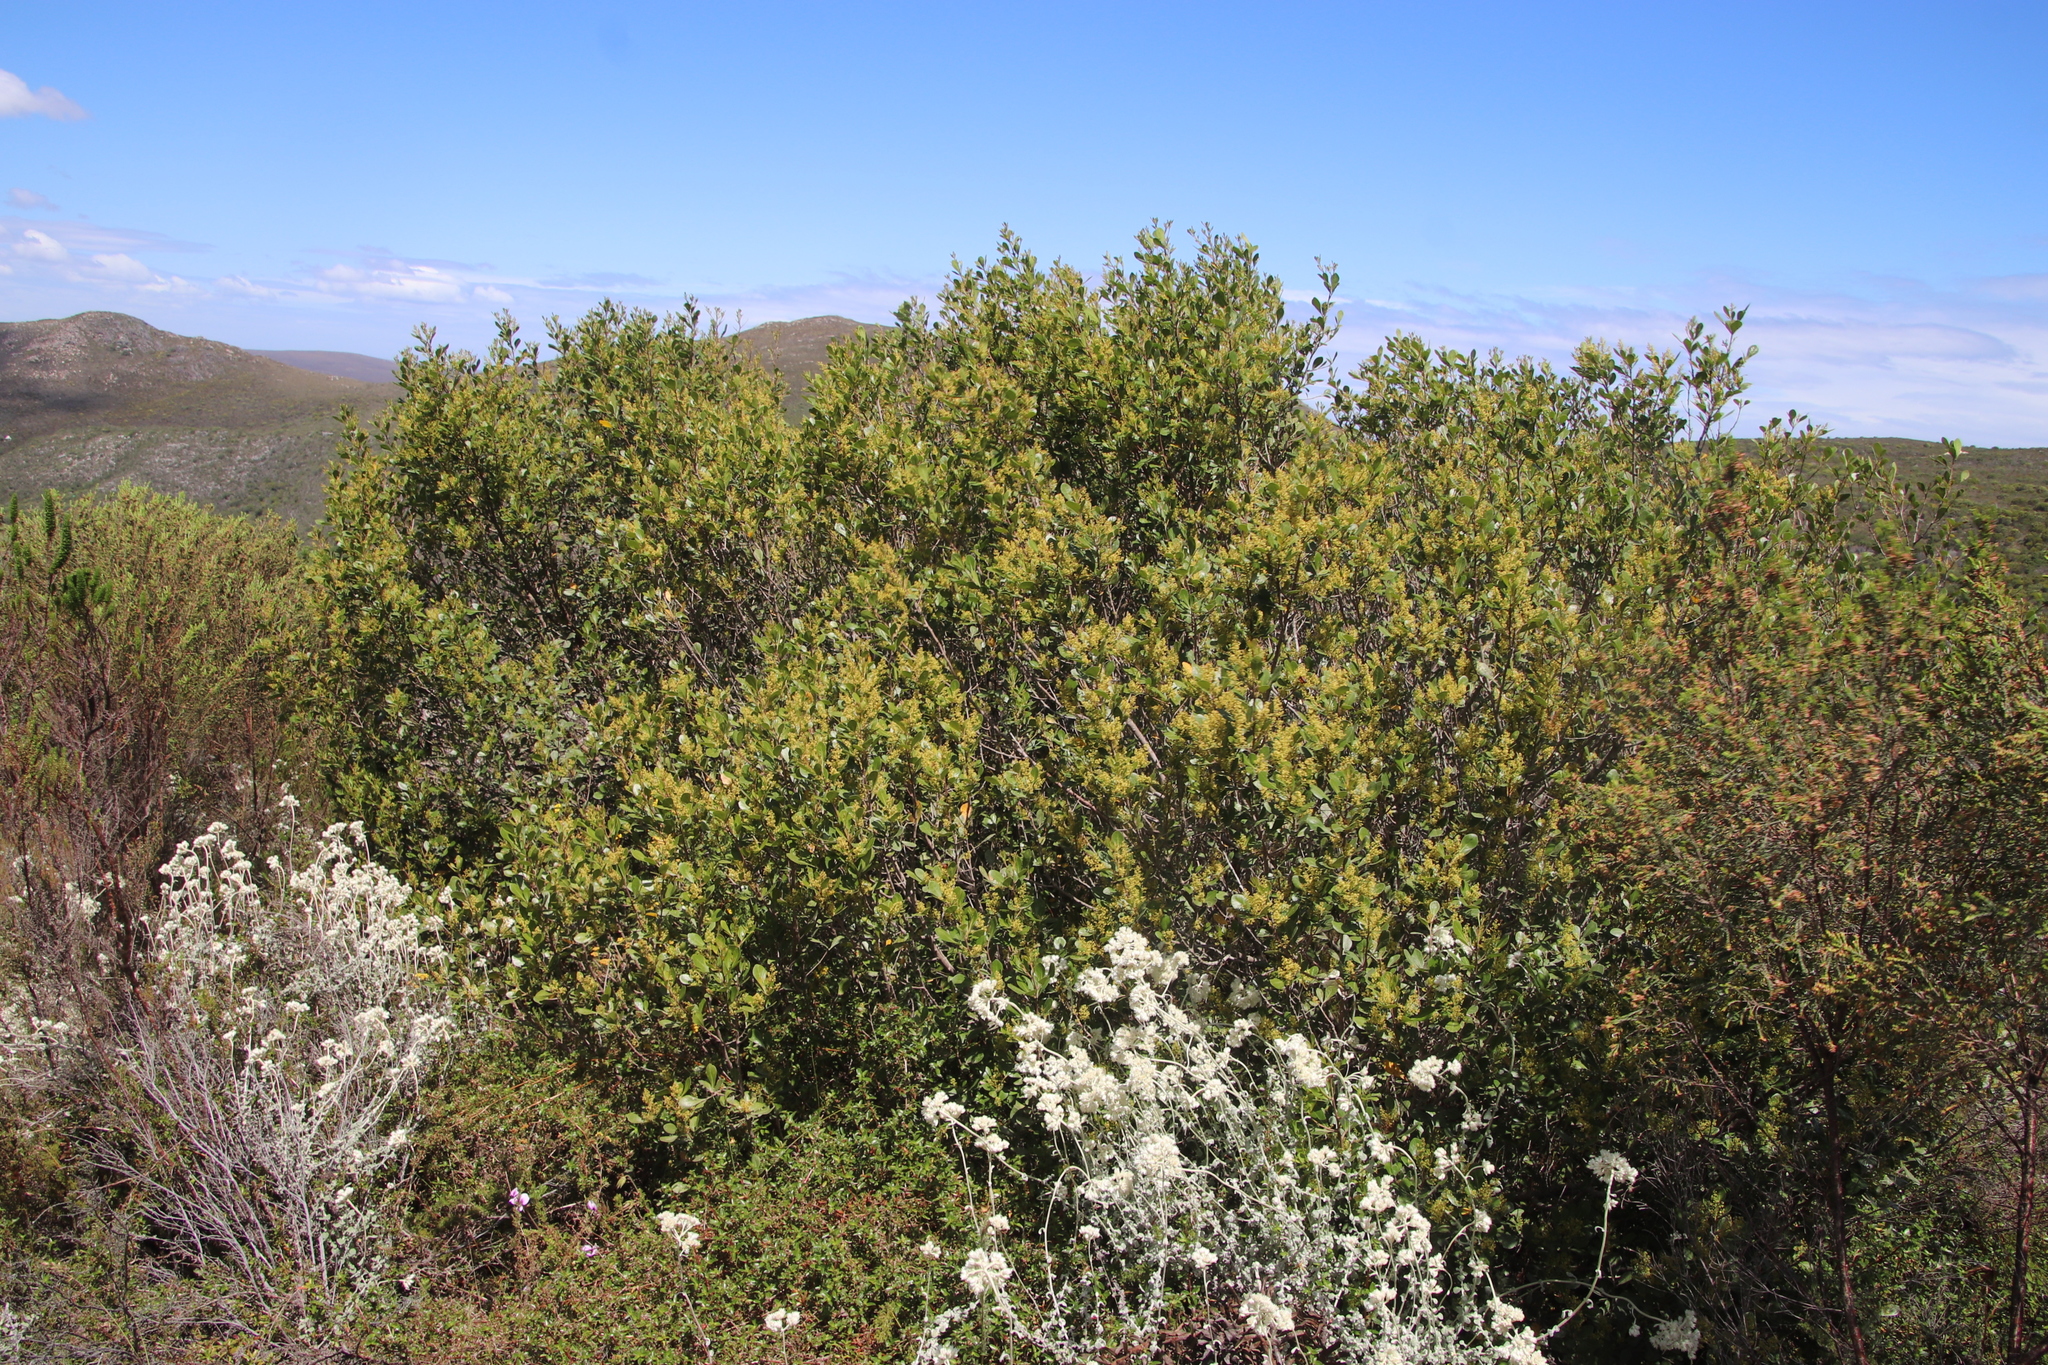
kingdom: Plantae
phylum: Tracheophyta
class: Magnoliopsida
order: Sapindales
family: Anacardiaceae
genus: Searsia
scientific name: Searsia lucida
